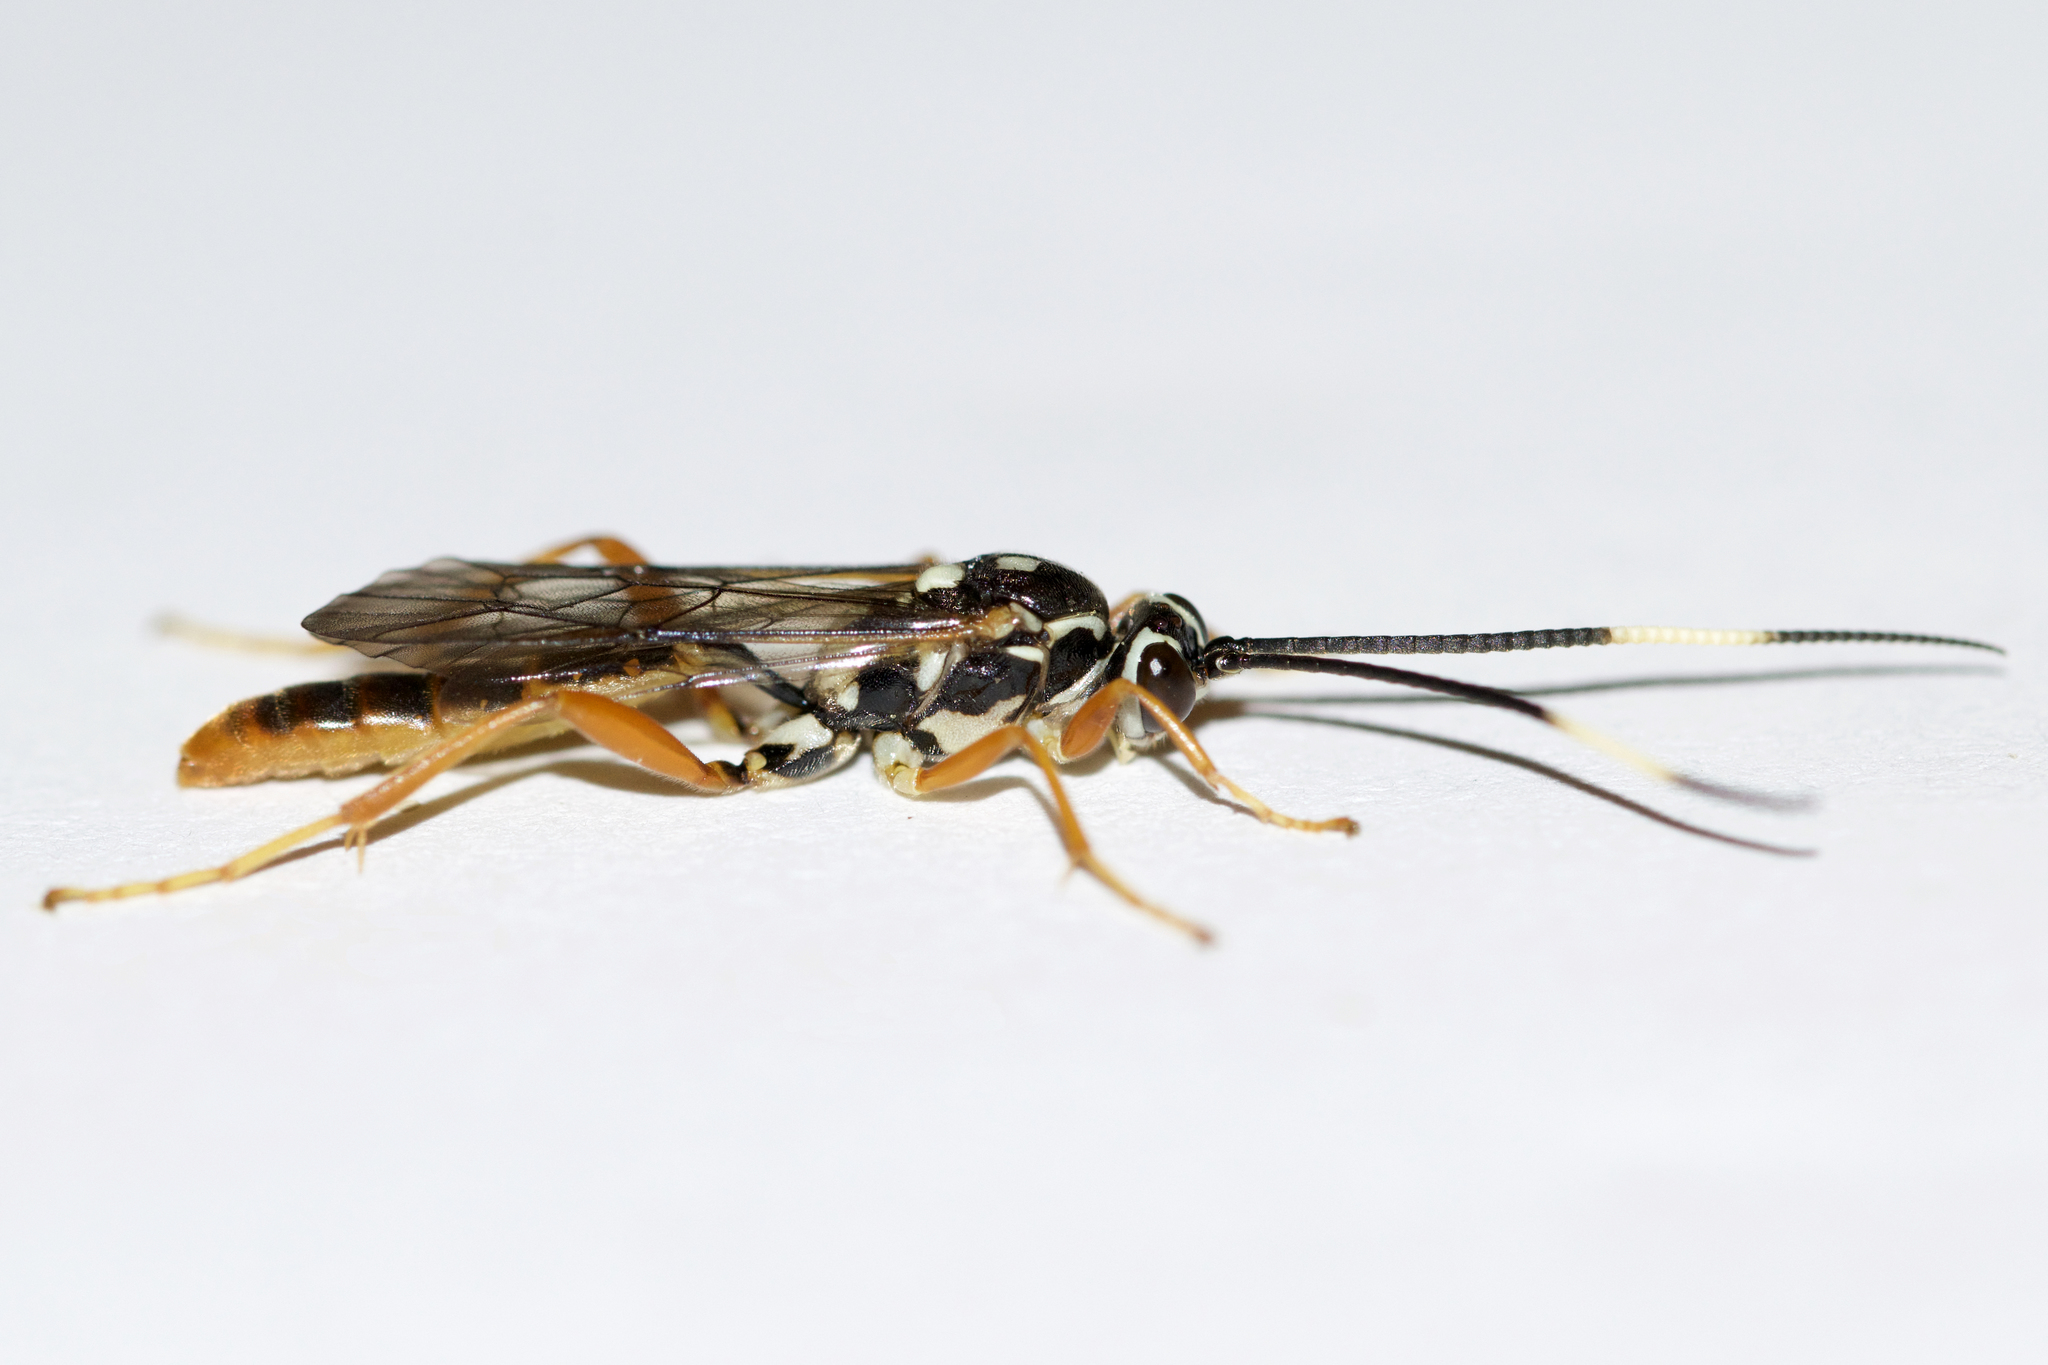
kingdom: Animalia
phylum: Arthropoda
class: Insecta
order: Hymenoptera
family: Ichneumonidae
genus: Cratichneumon
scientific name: Cratichneumon w-album
